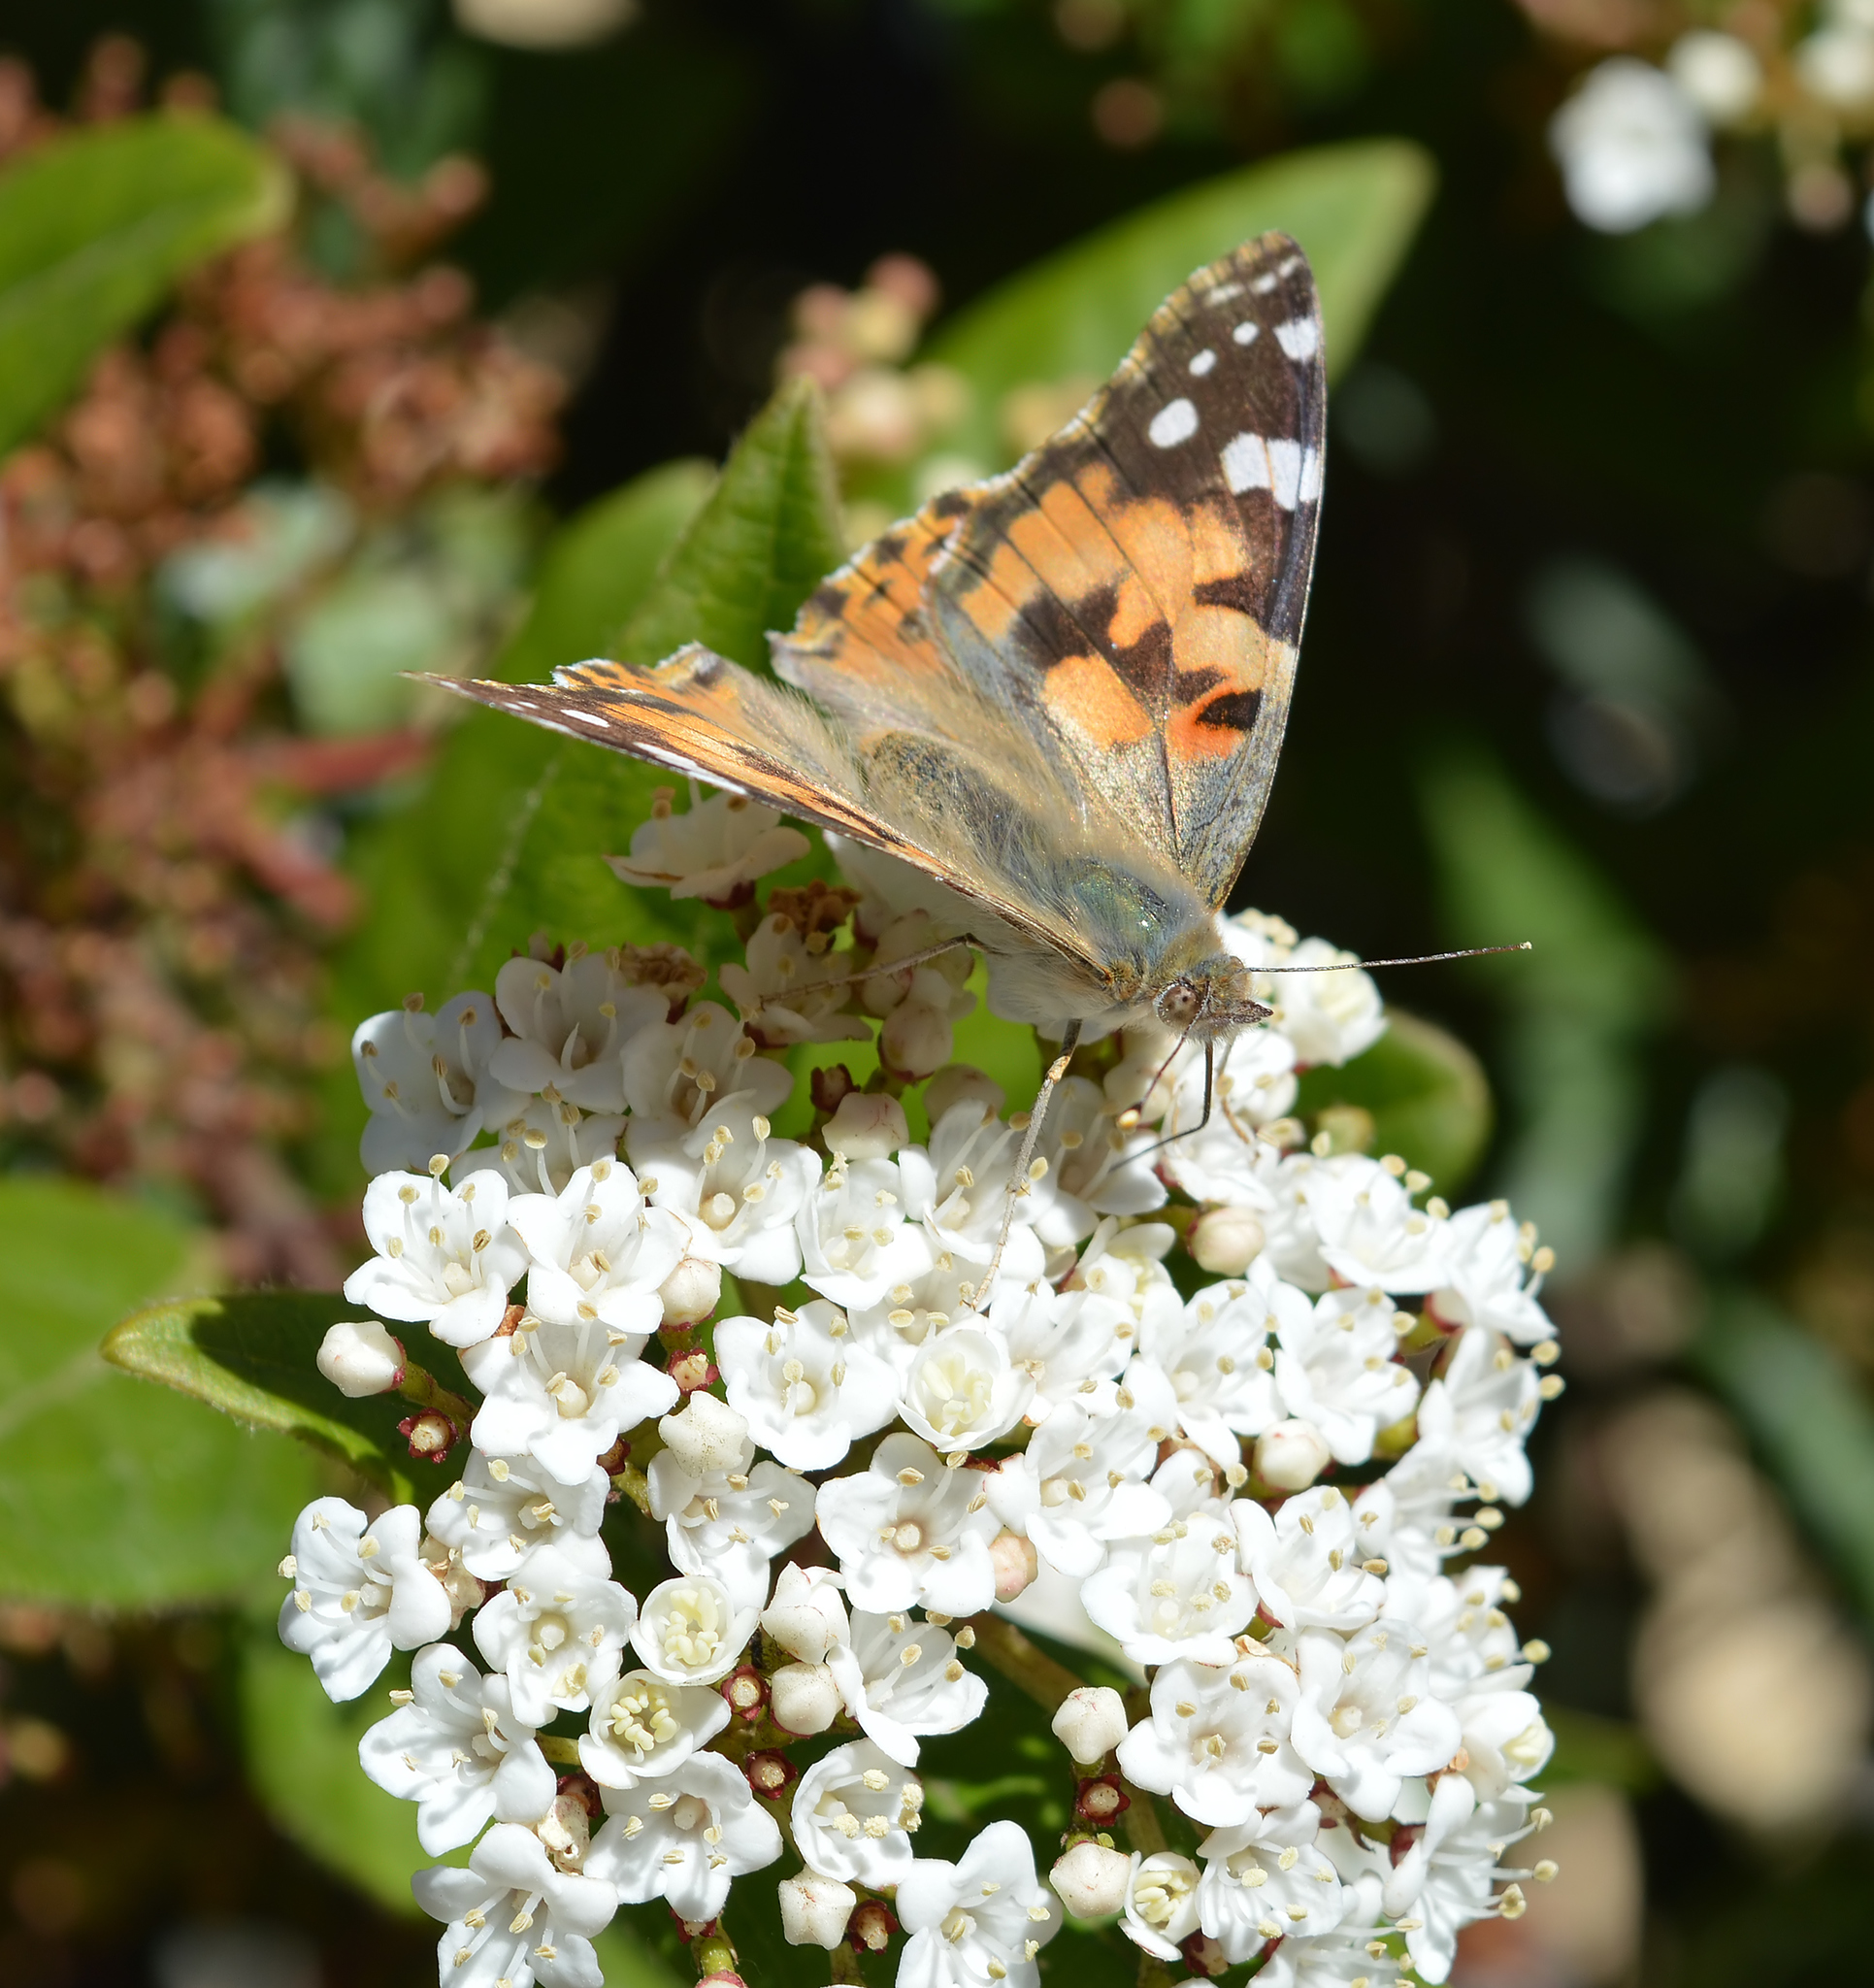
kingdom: Animalia
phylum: Arthropoda
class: Insecta
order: Lepidoptera
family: Nymphalidae
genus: Vanessa
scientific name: Vanessa cardui
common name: Painted lady
